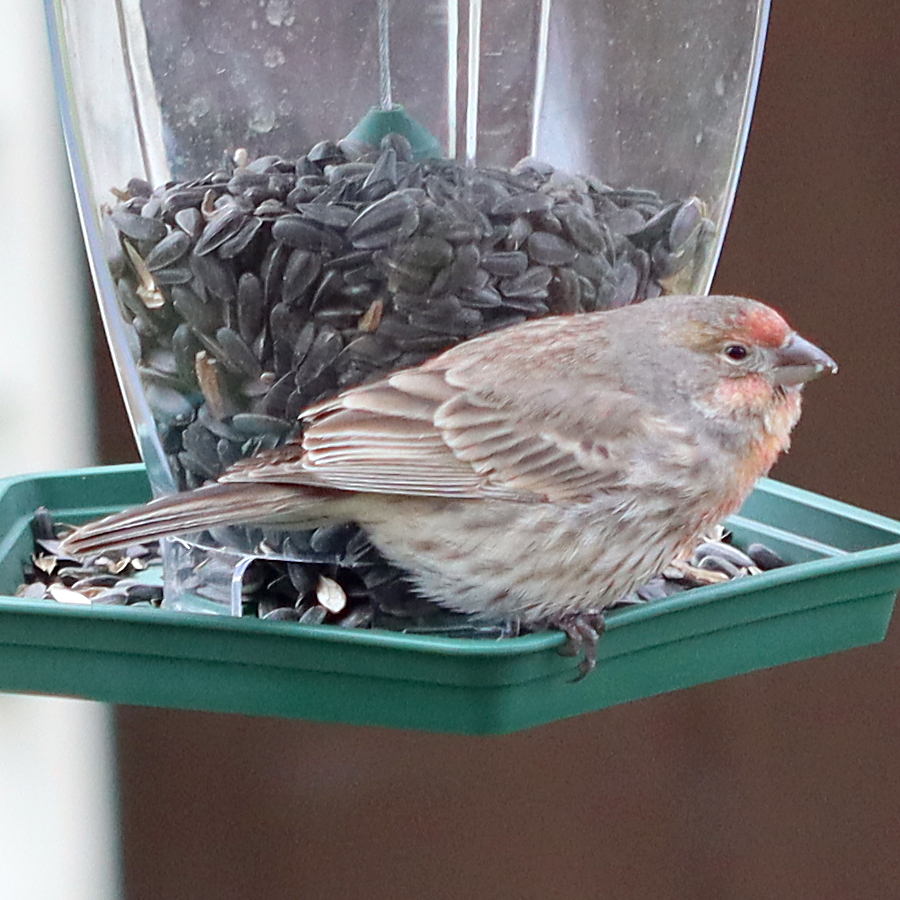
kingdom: Animalia
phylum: Chordata
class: Aves
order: Passeriformes
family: Fringillidae
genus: Haemorhous
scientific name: Haemorhous mexicanus
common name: House finch
